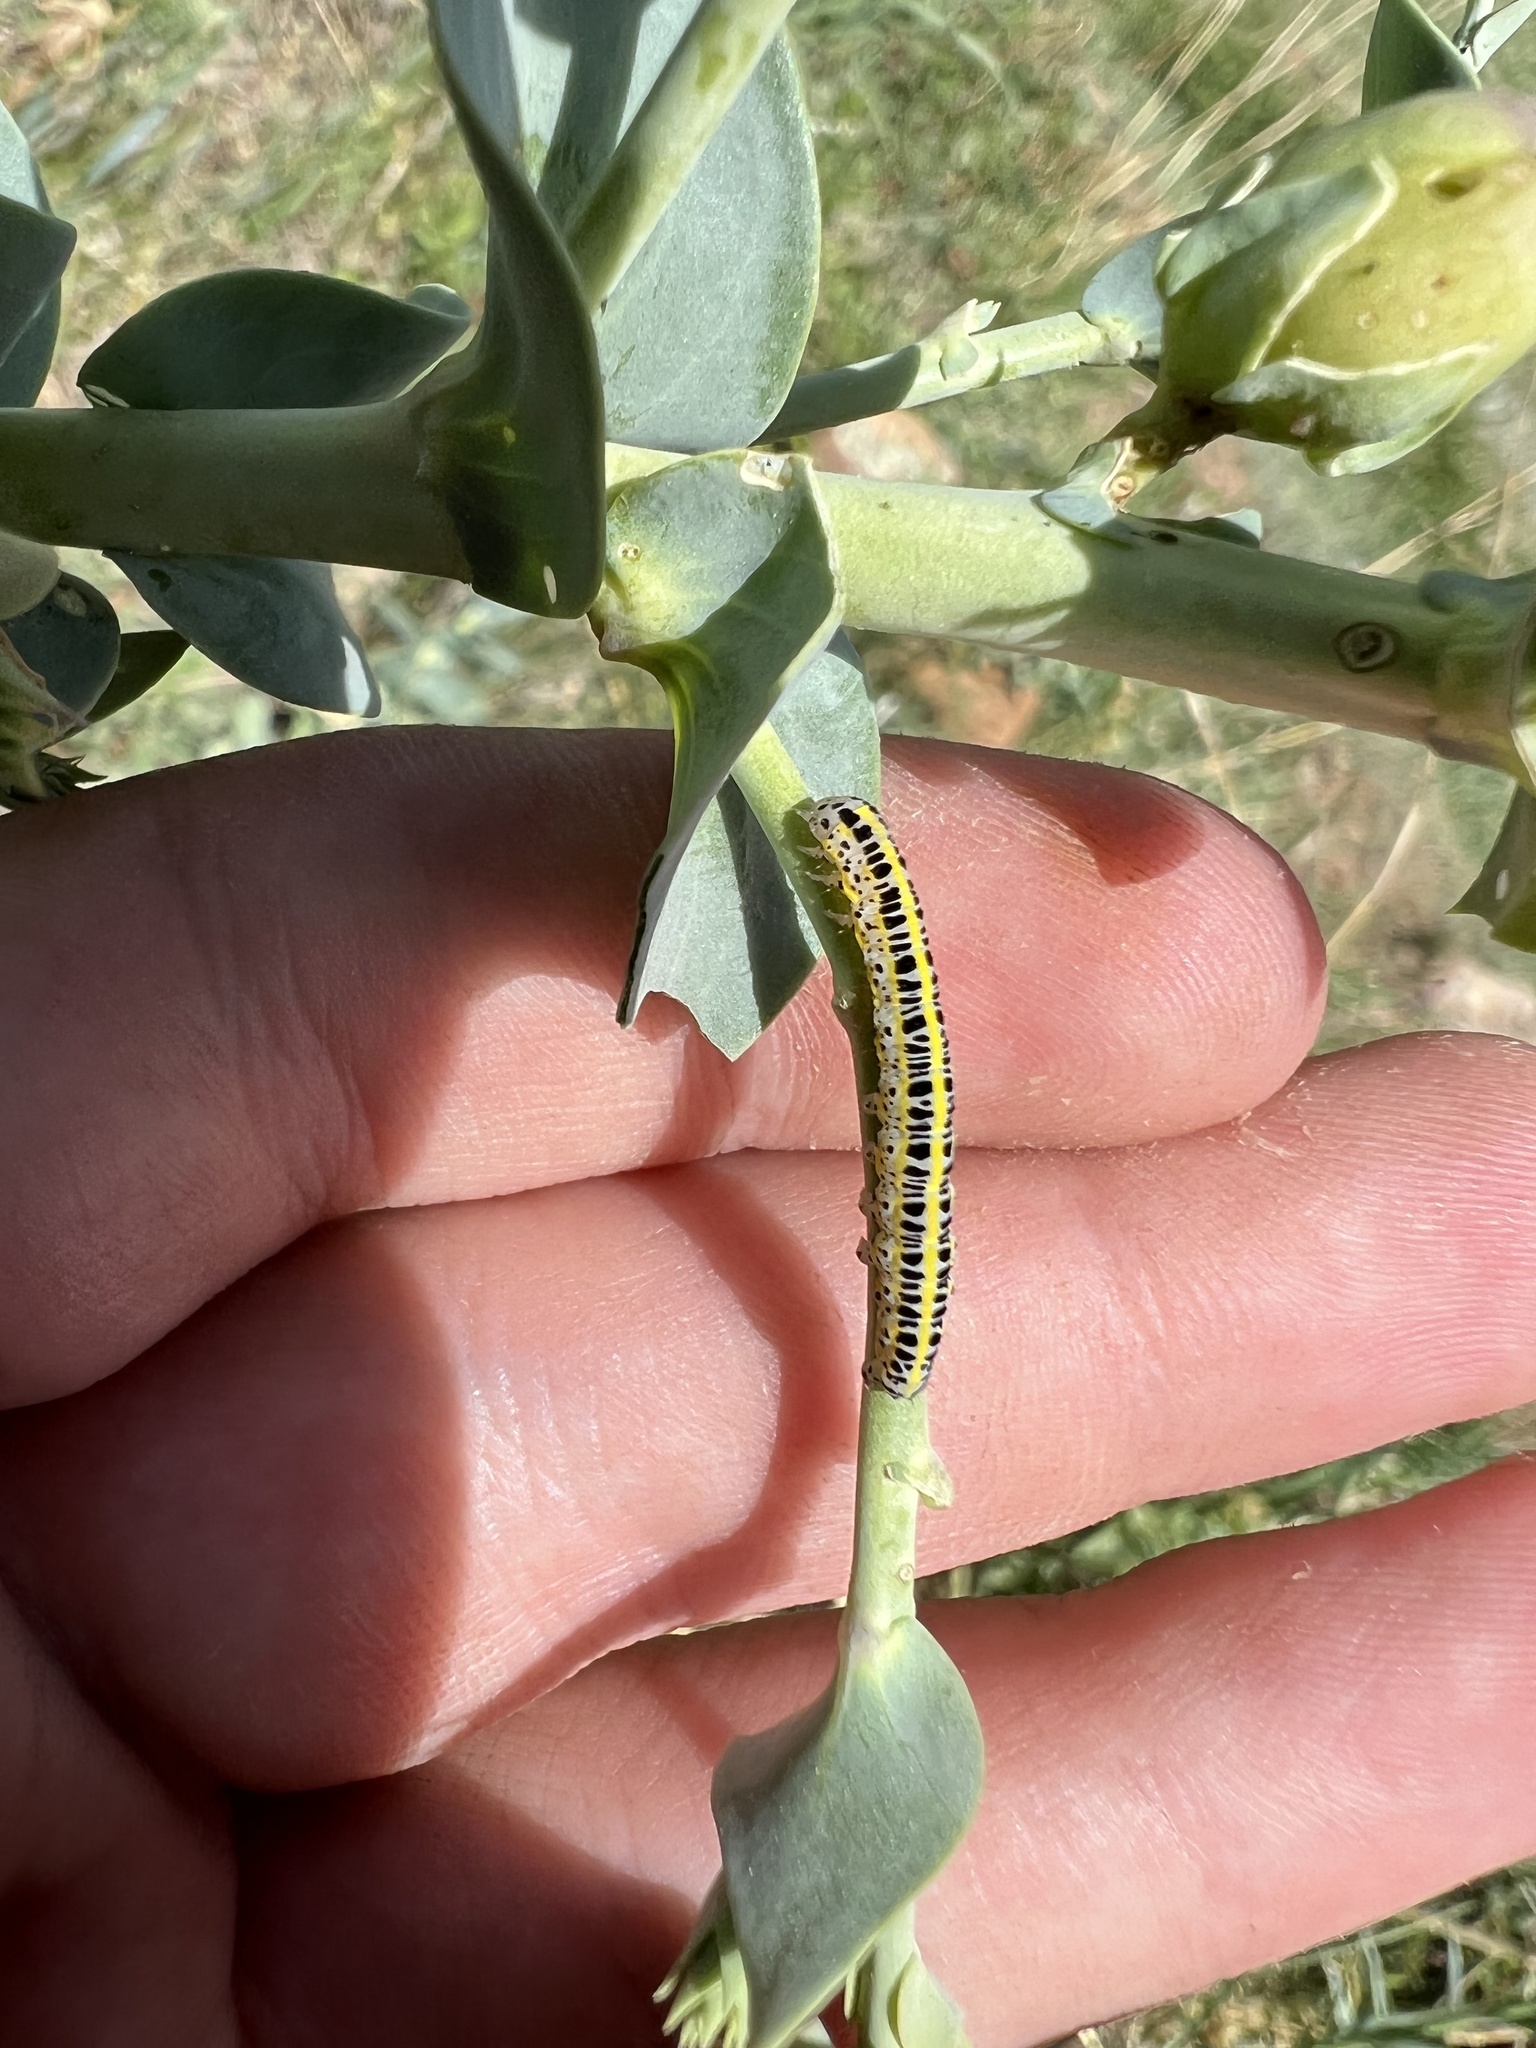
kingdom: Animalia
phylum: Arthropoda
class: Insecta
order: Lepidoptera
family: Noctuidae
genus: Calophasia
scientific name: Calophasia lunula
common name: Toadflax brocade
